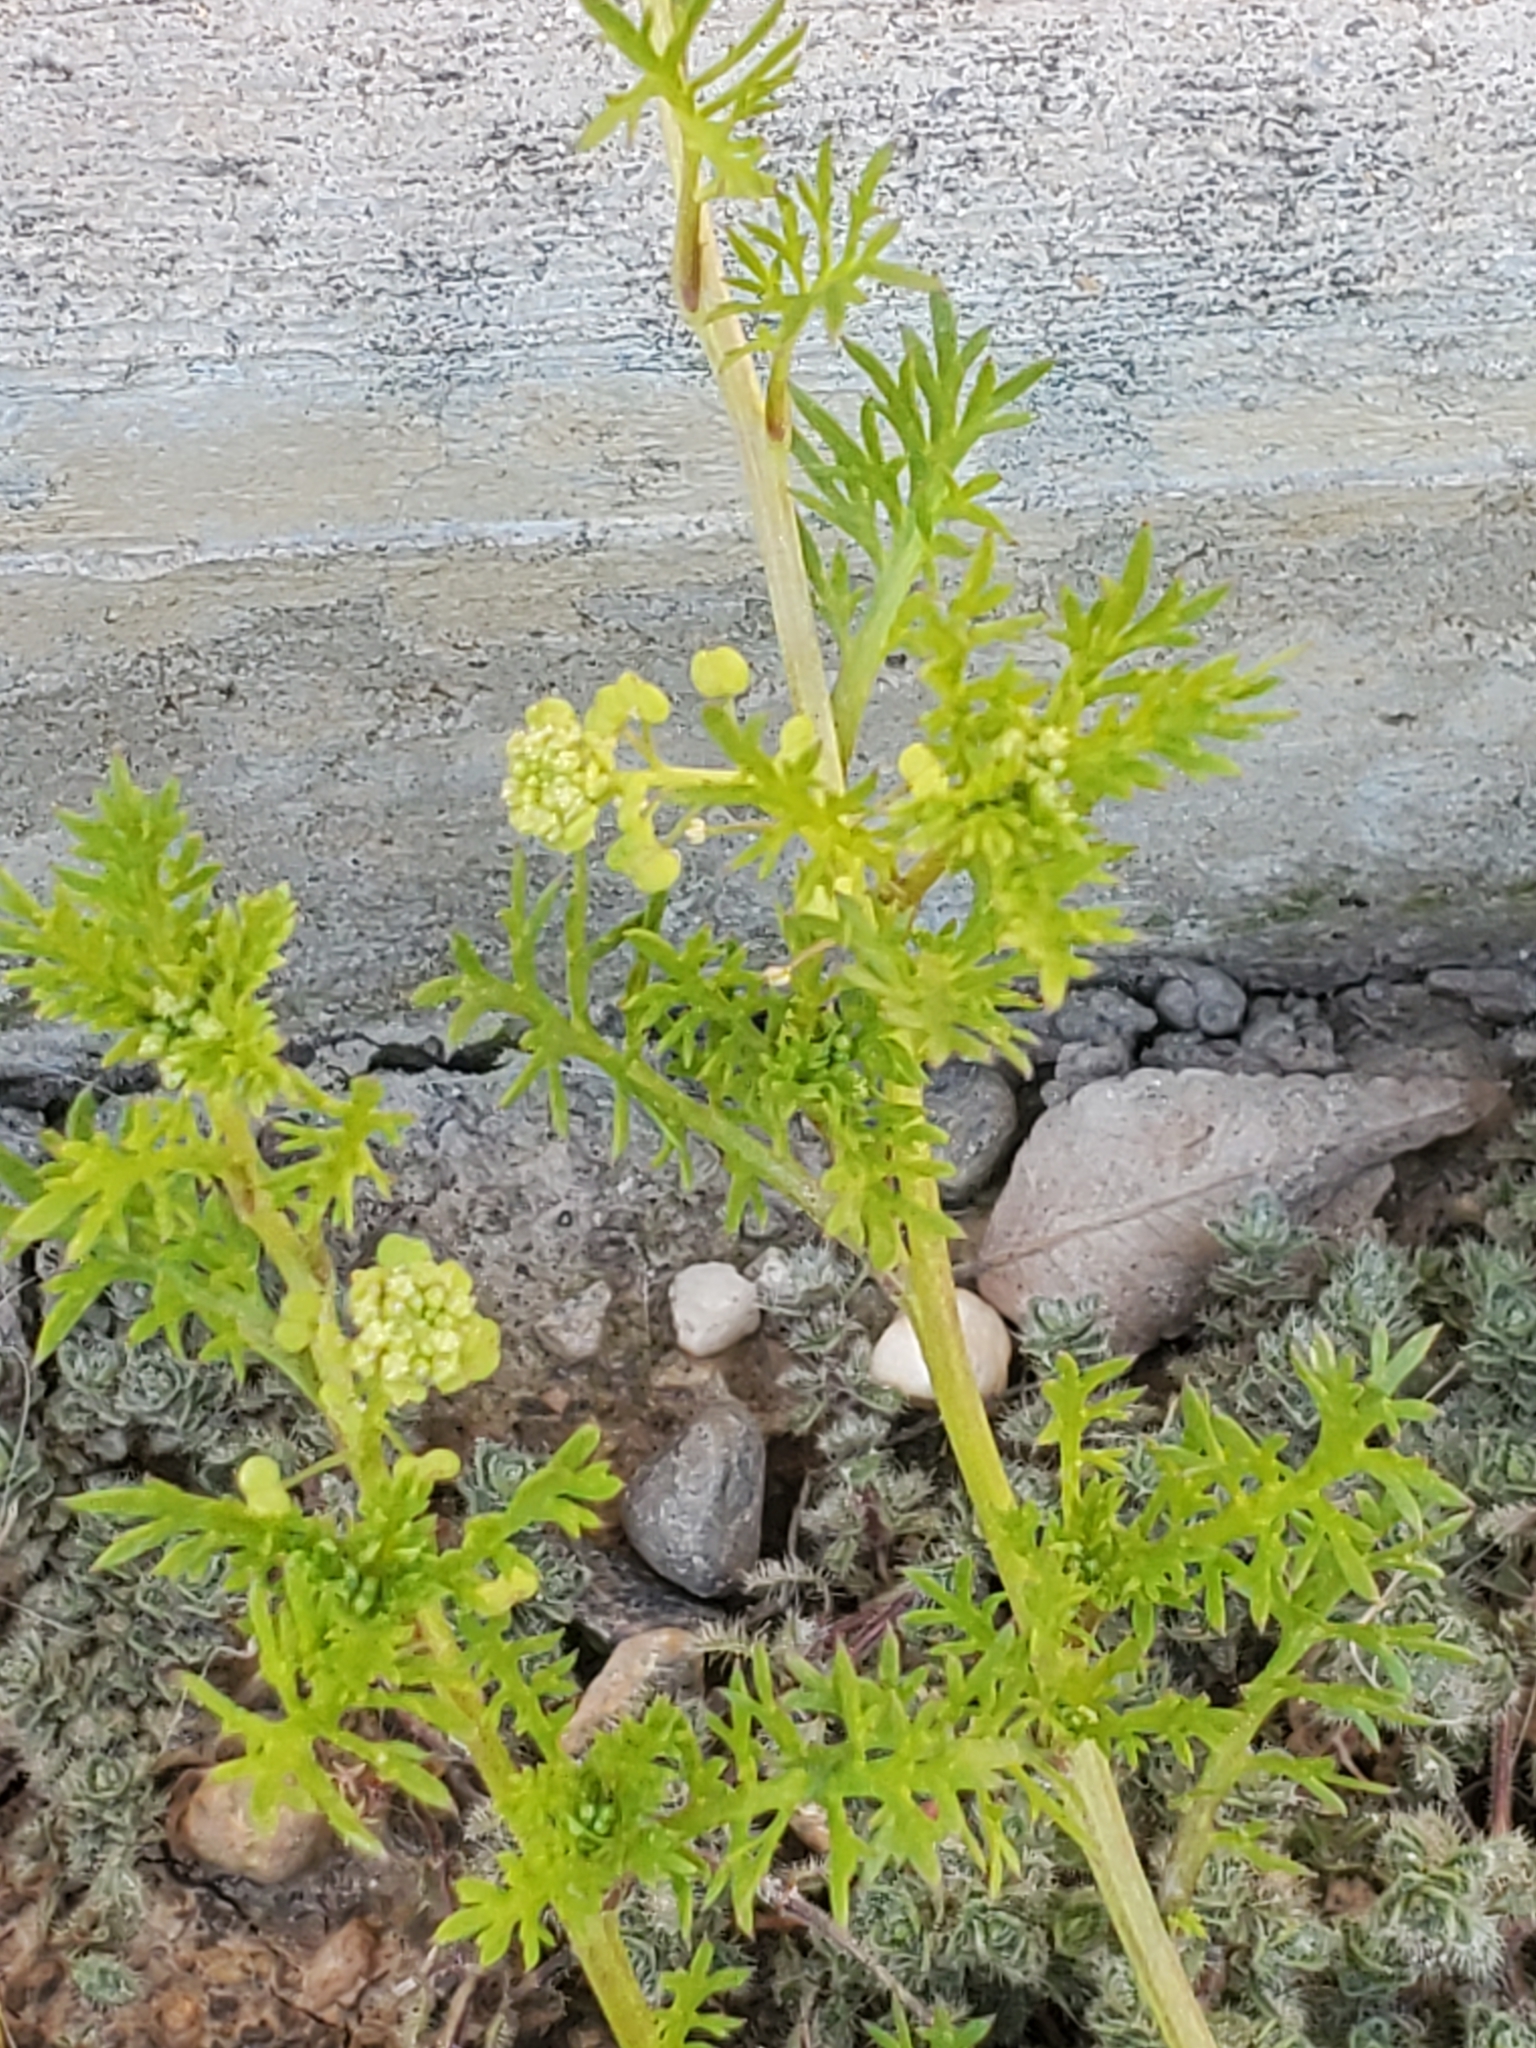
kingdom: Plantae
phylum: Tracheophyta
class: Magnoliopsida
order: Brassicales
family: Brassicaceae
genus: Lepidium
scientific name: Lepidium didymum
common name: Lesser swinecress
